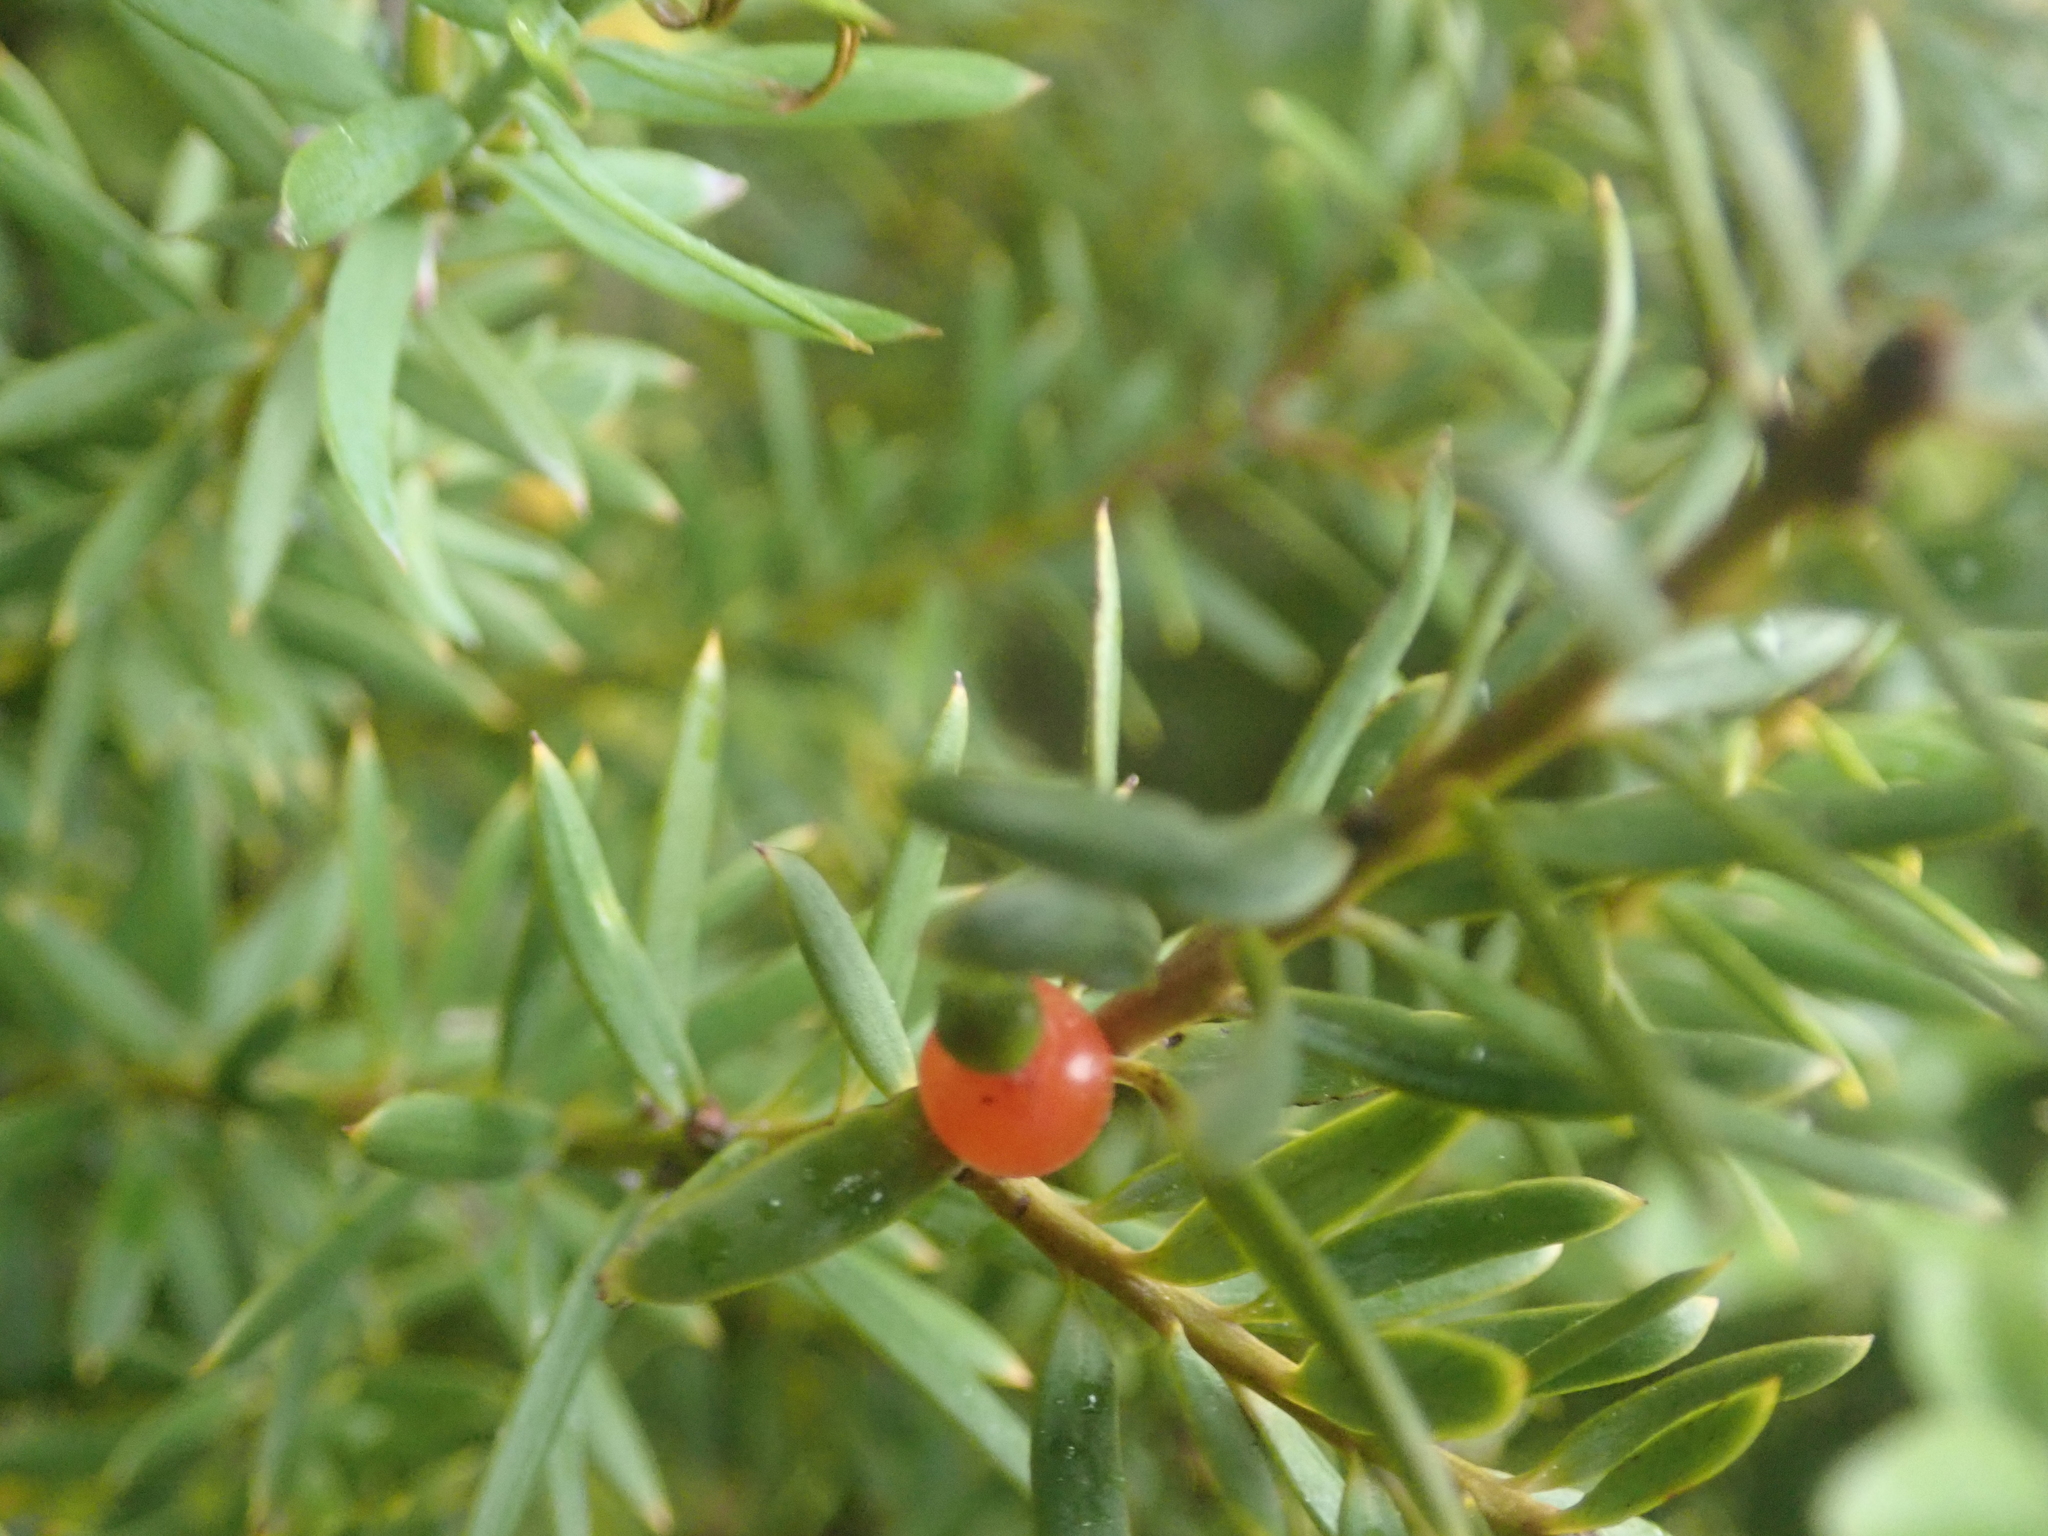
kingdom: Plantae
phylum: Tracheophyta
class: Pinopsida
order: Pinales
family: Podocarpaceae
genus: Podocarpus
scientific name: Podocarpus totara
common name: Totara
